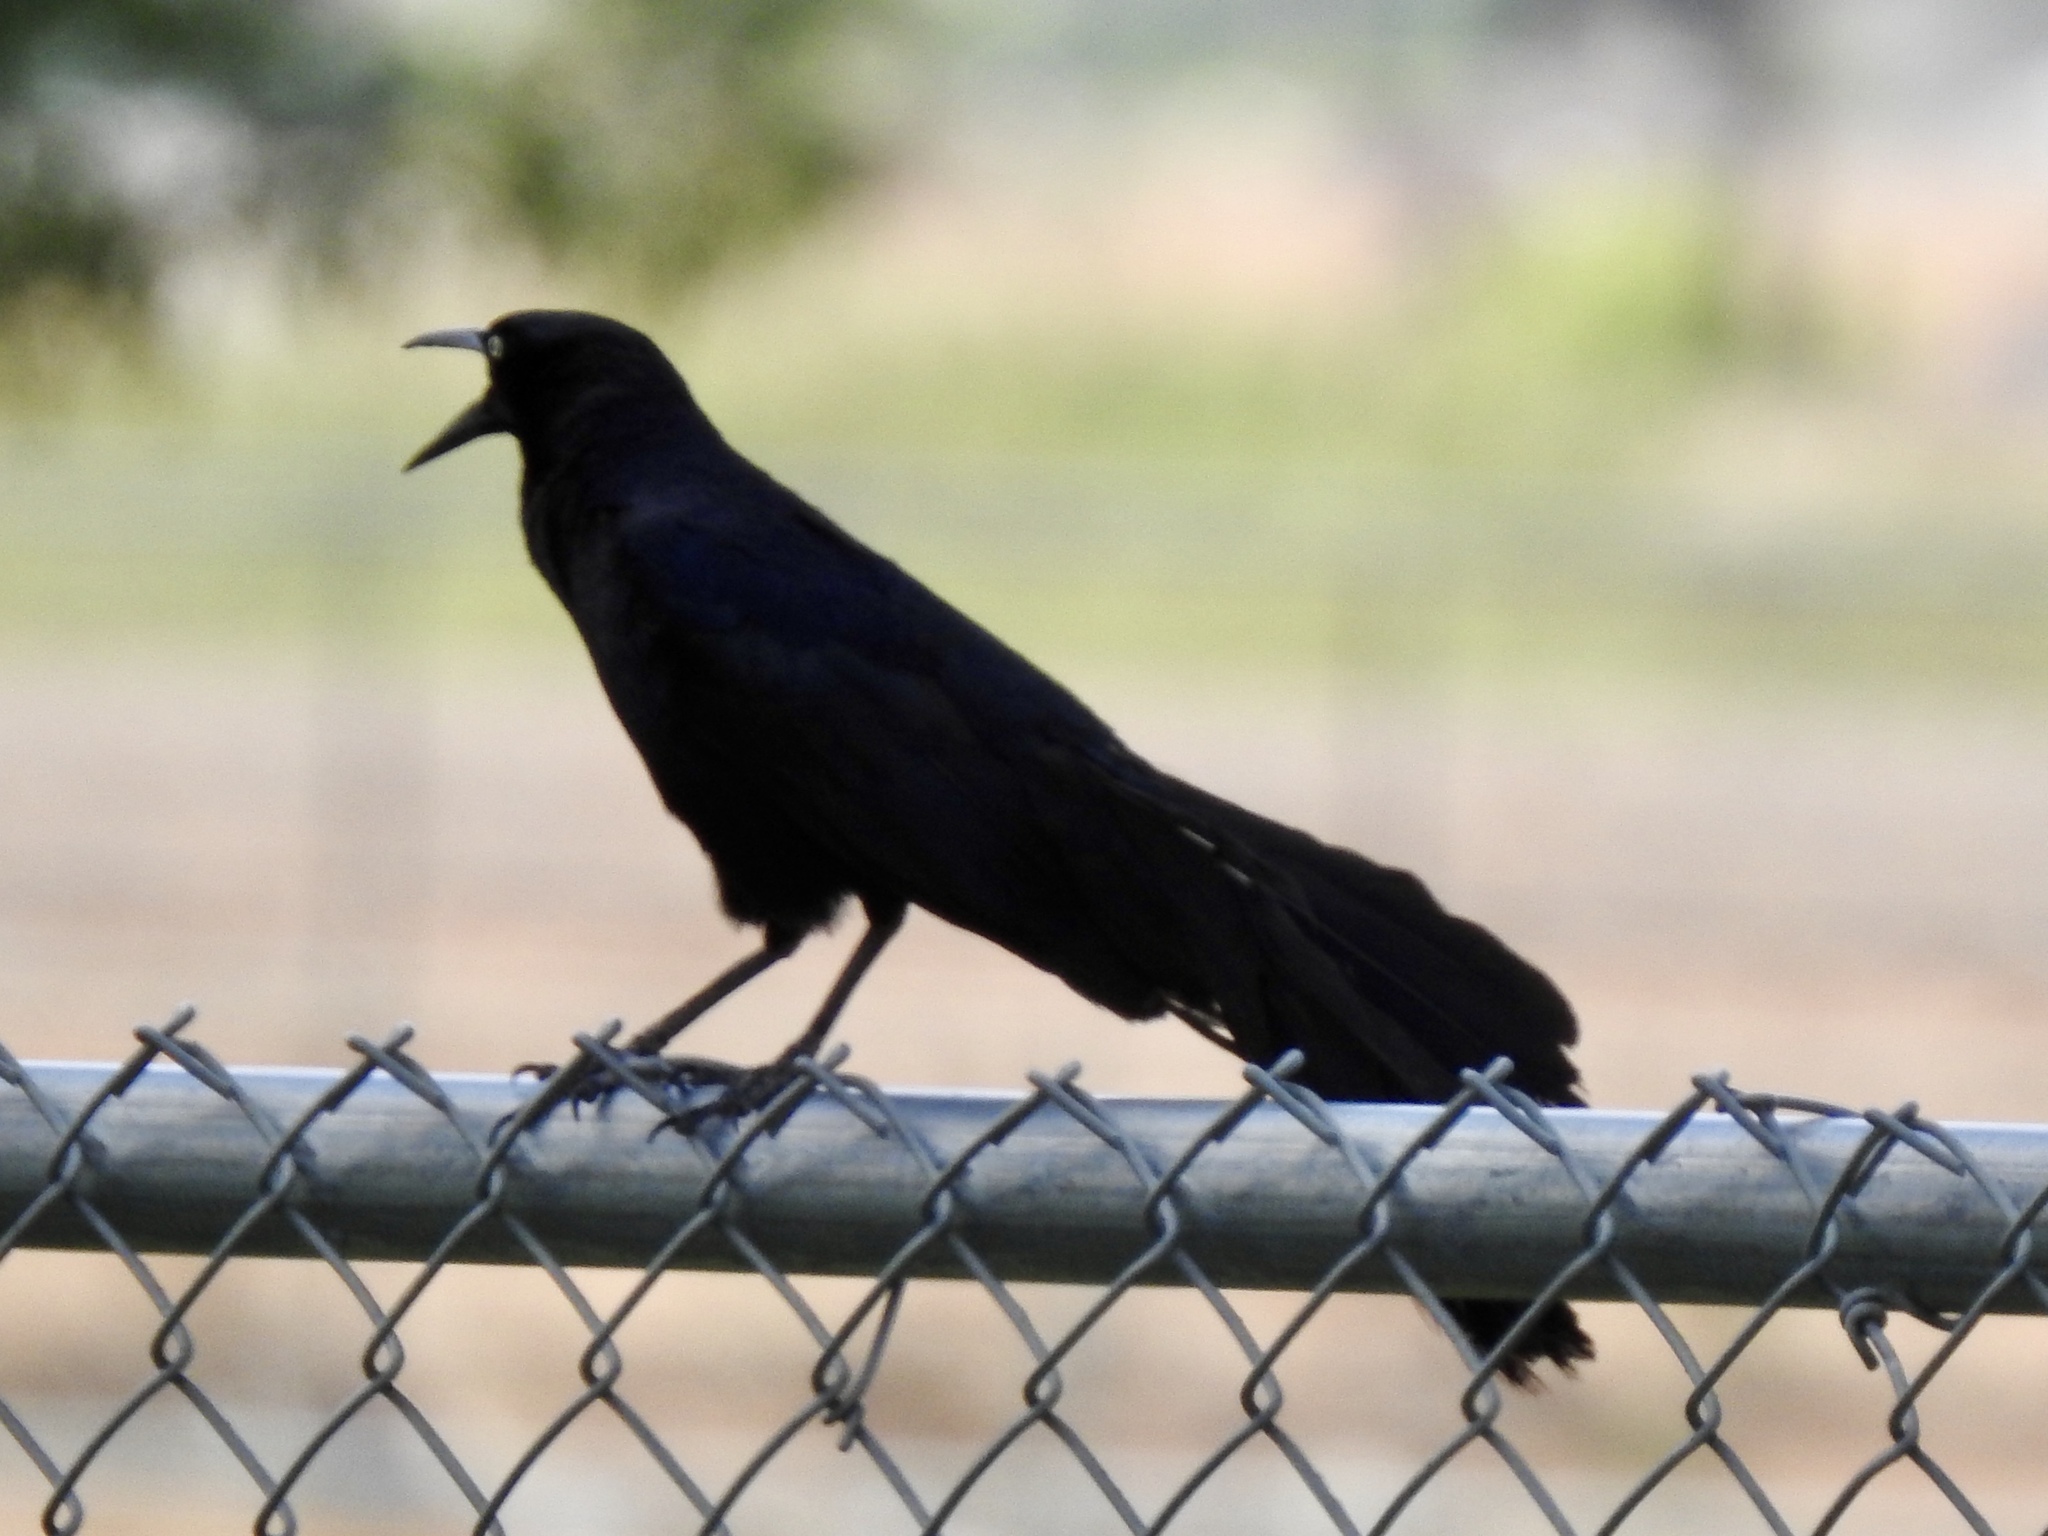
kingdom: Animalia
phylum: Chordata
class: Aves
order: Passeriformes
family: Icteridae
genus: Quiscalus
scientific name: Quiscalus mexicanus
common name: Great-tailed grackle
